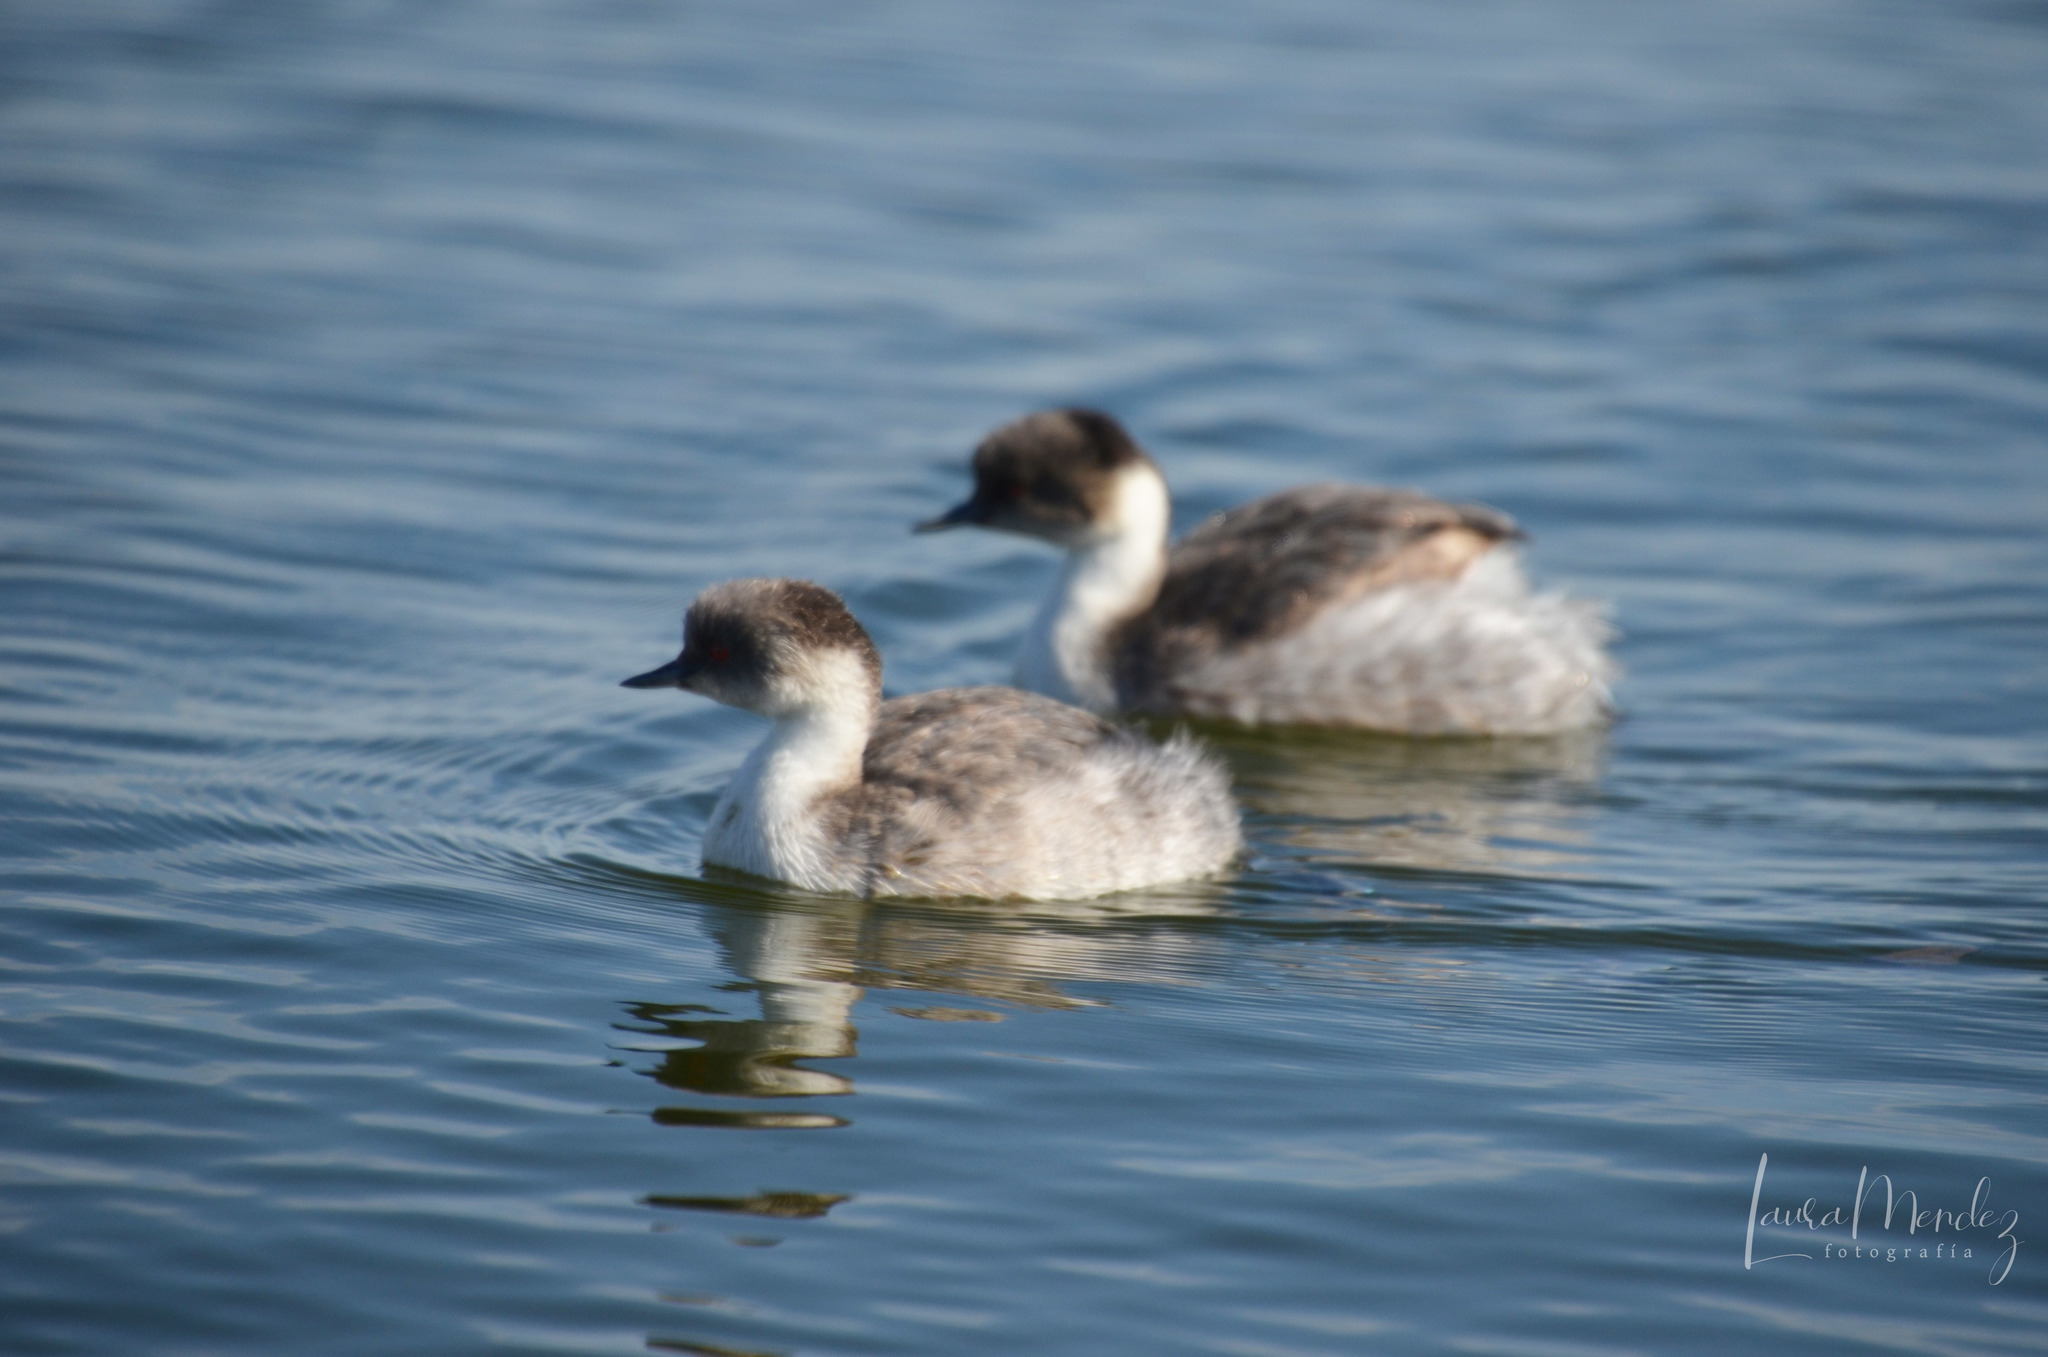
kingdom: Animalia
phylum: Chordata
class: Aves
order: Podicipediformes
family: Podicipedidae
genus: Podiceps
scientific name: Podiceps occipitalis
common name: Silvery grebe
